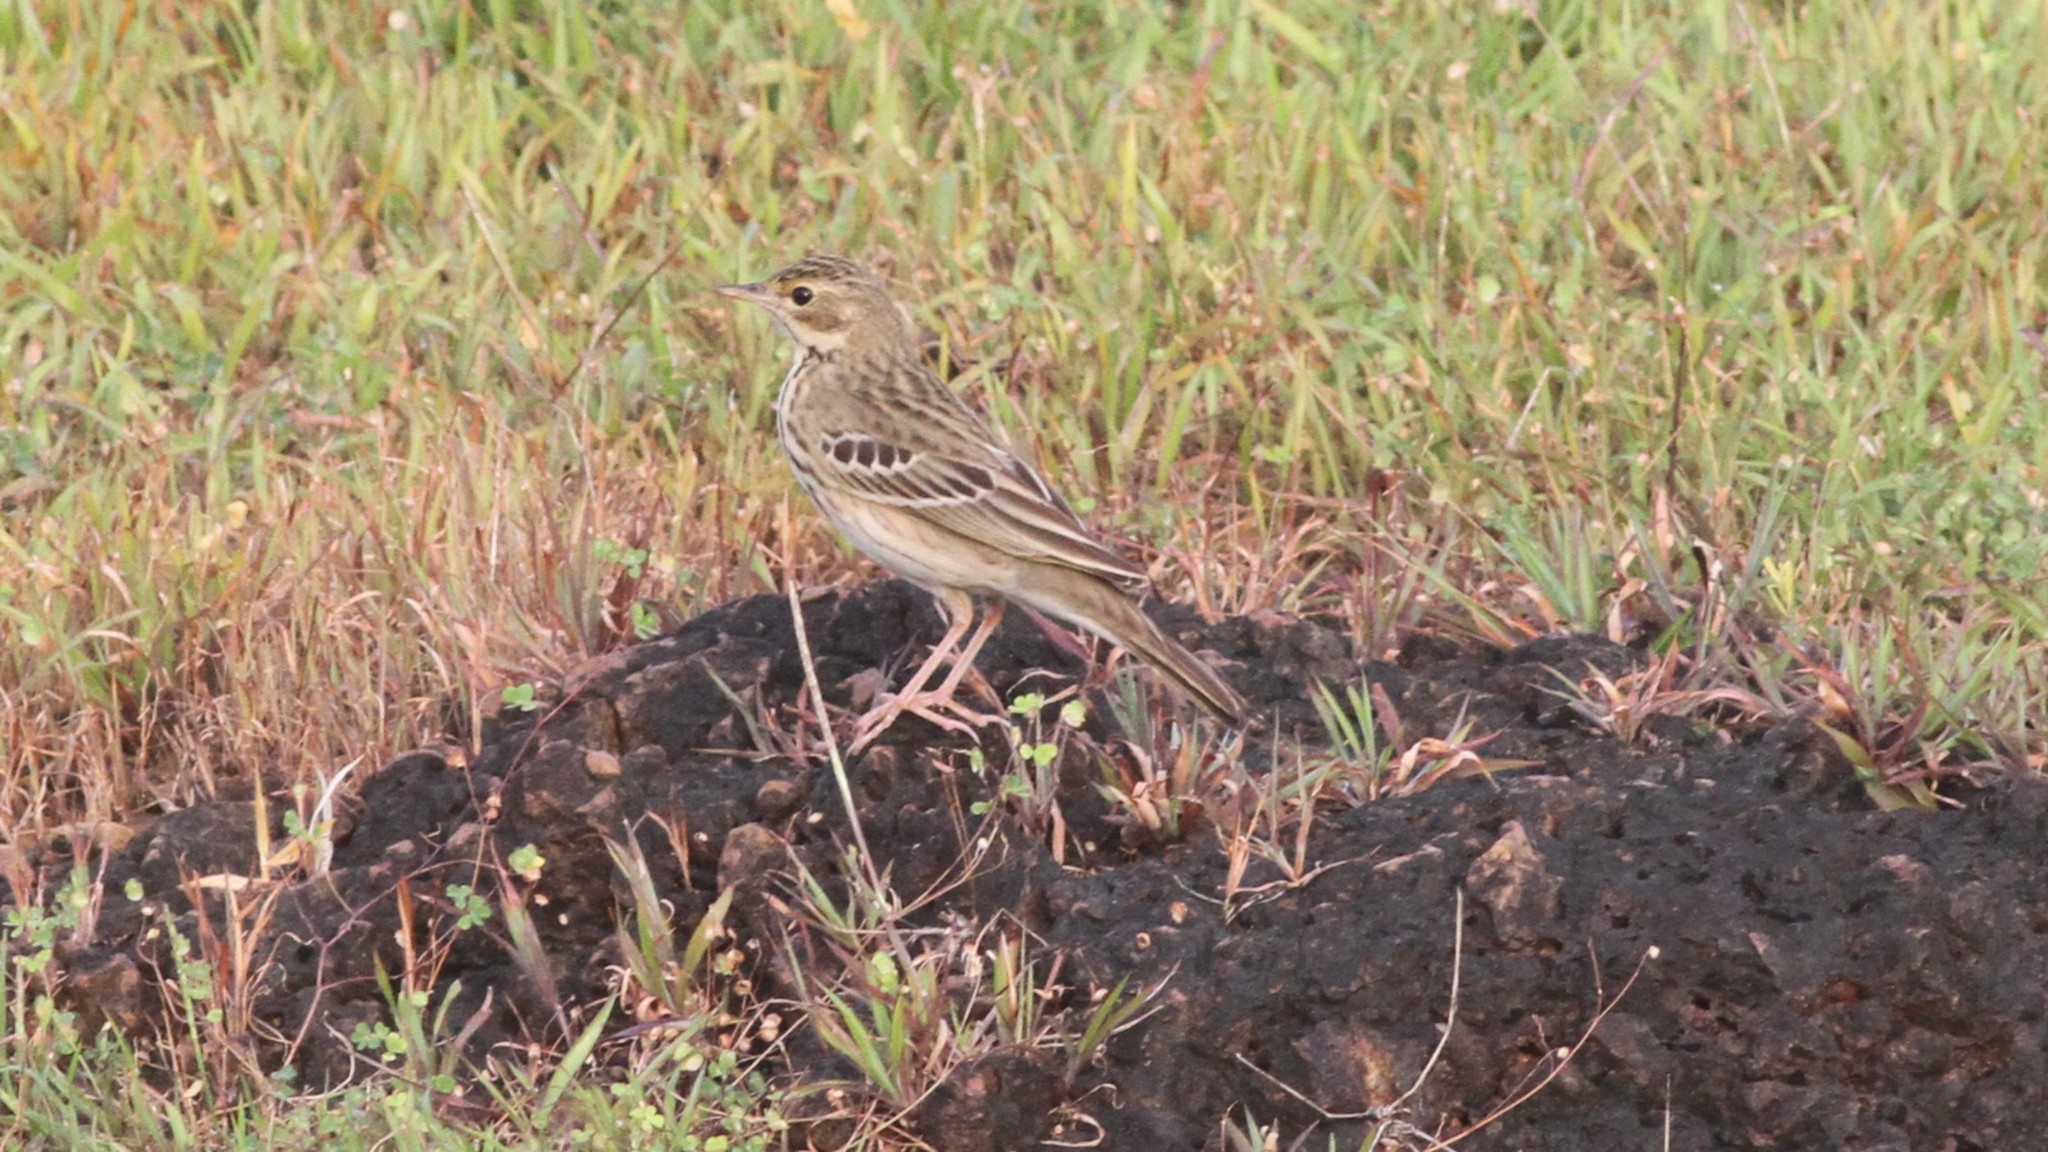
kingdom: Animalia
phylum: Chordata
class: Aves
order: Passeriformes
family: Motacillidae
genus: Anthus
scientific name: Anthus trivialis
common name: Tree pipit
